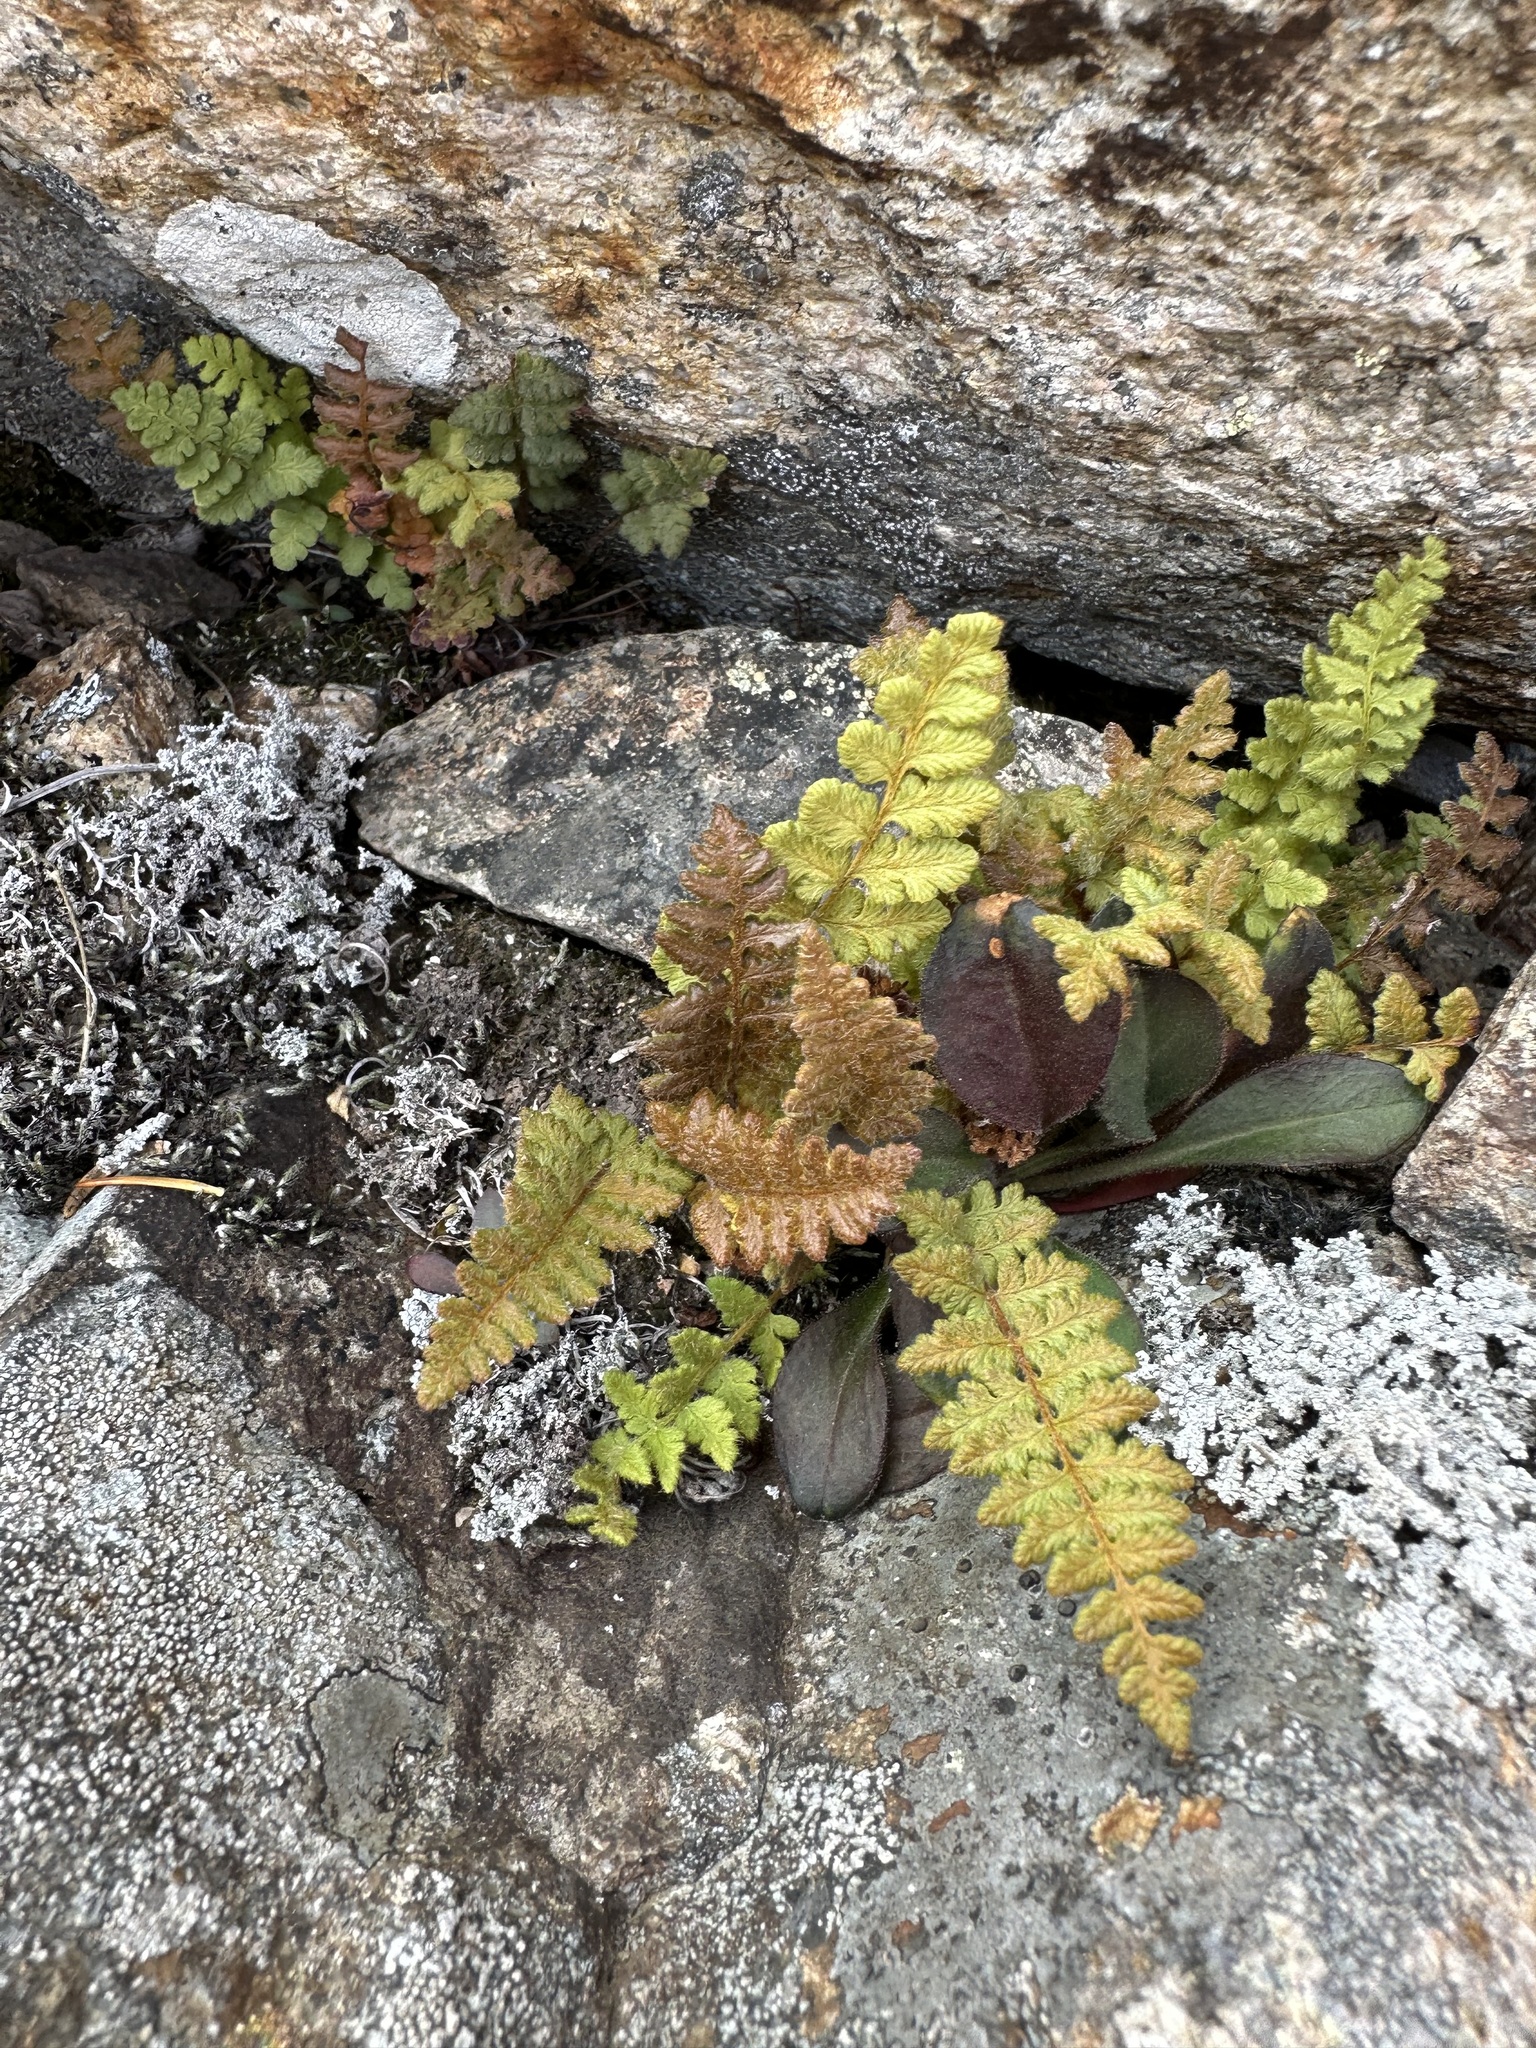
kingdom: Plantae
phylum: Tracheophyta
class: Polypodiopsida
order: Polypodiales
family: Woodsiaceae
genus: Woodsia
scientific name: Woodsia subcordata
